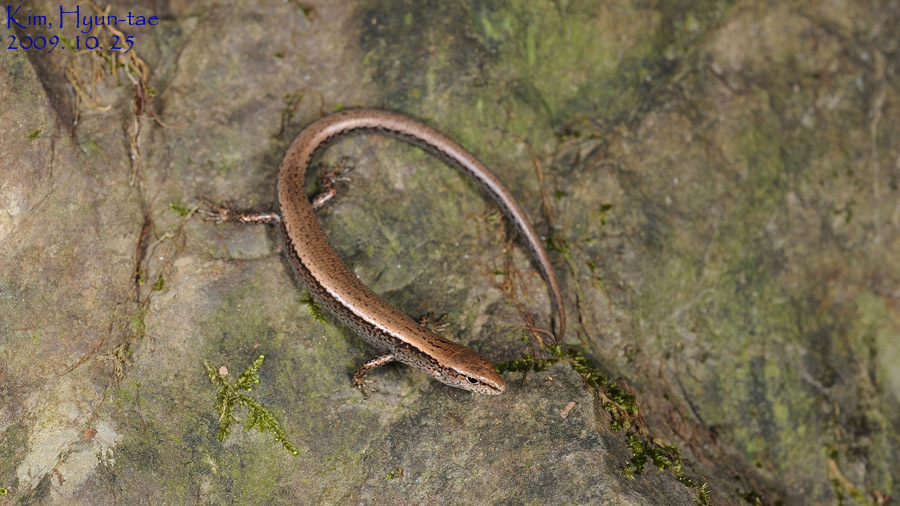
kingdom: Animalia
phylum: Chordata
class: Squamata
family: Scincidae
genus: Scincella
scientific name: Scincella vandenburghi
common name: Tsushima smooth skink
